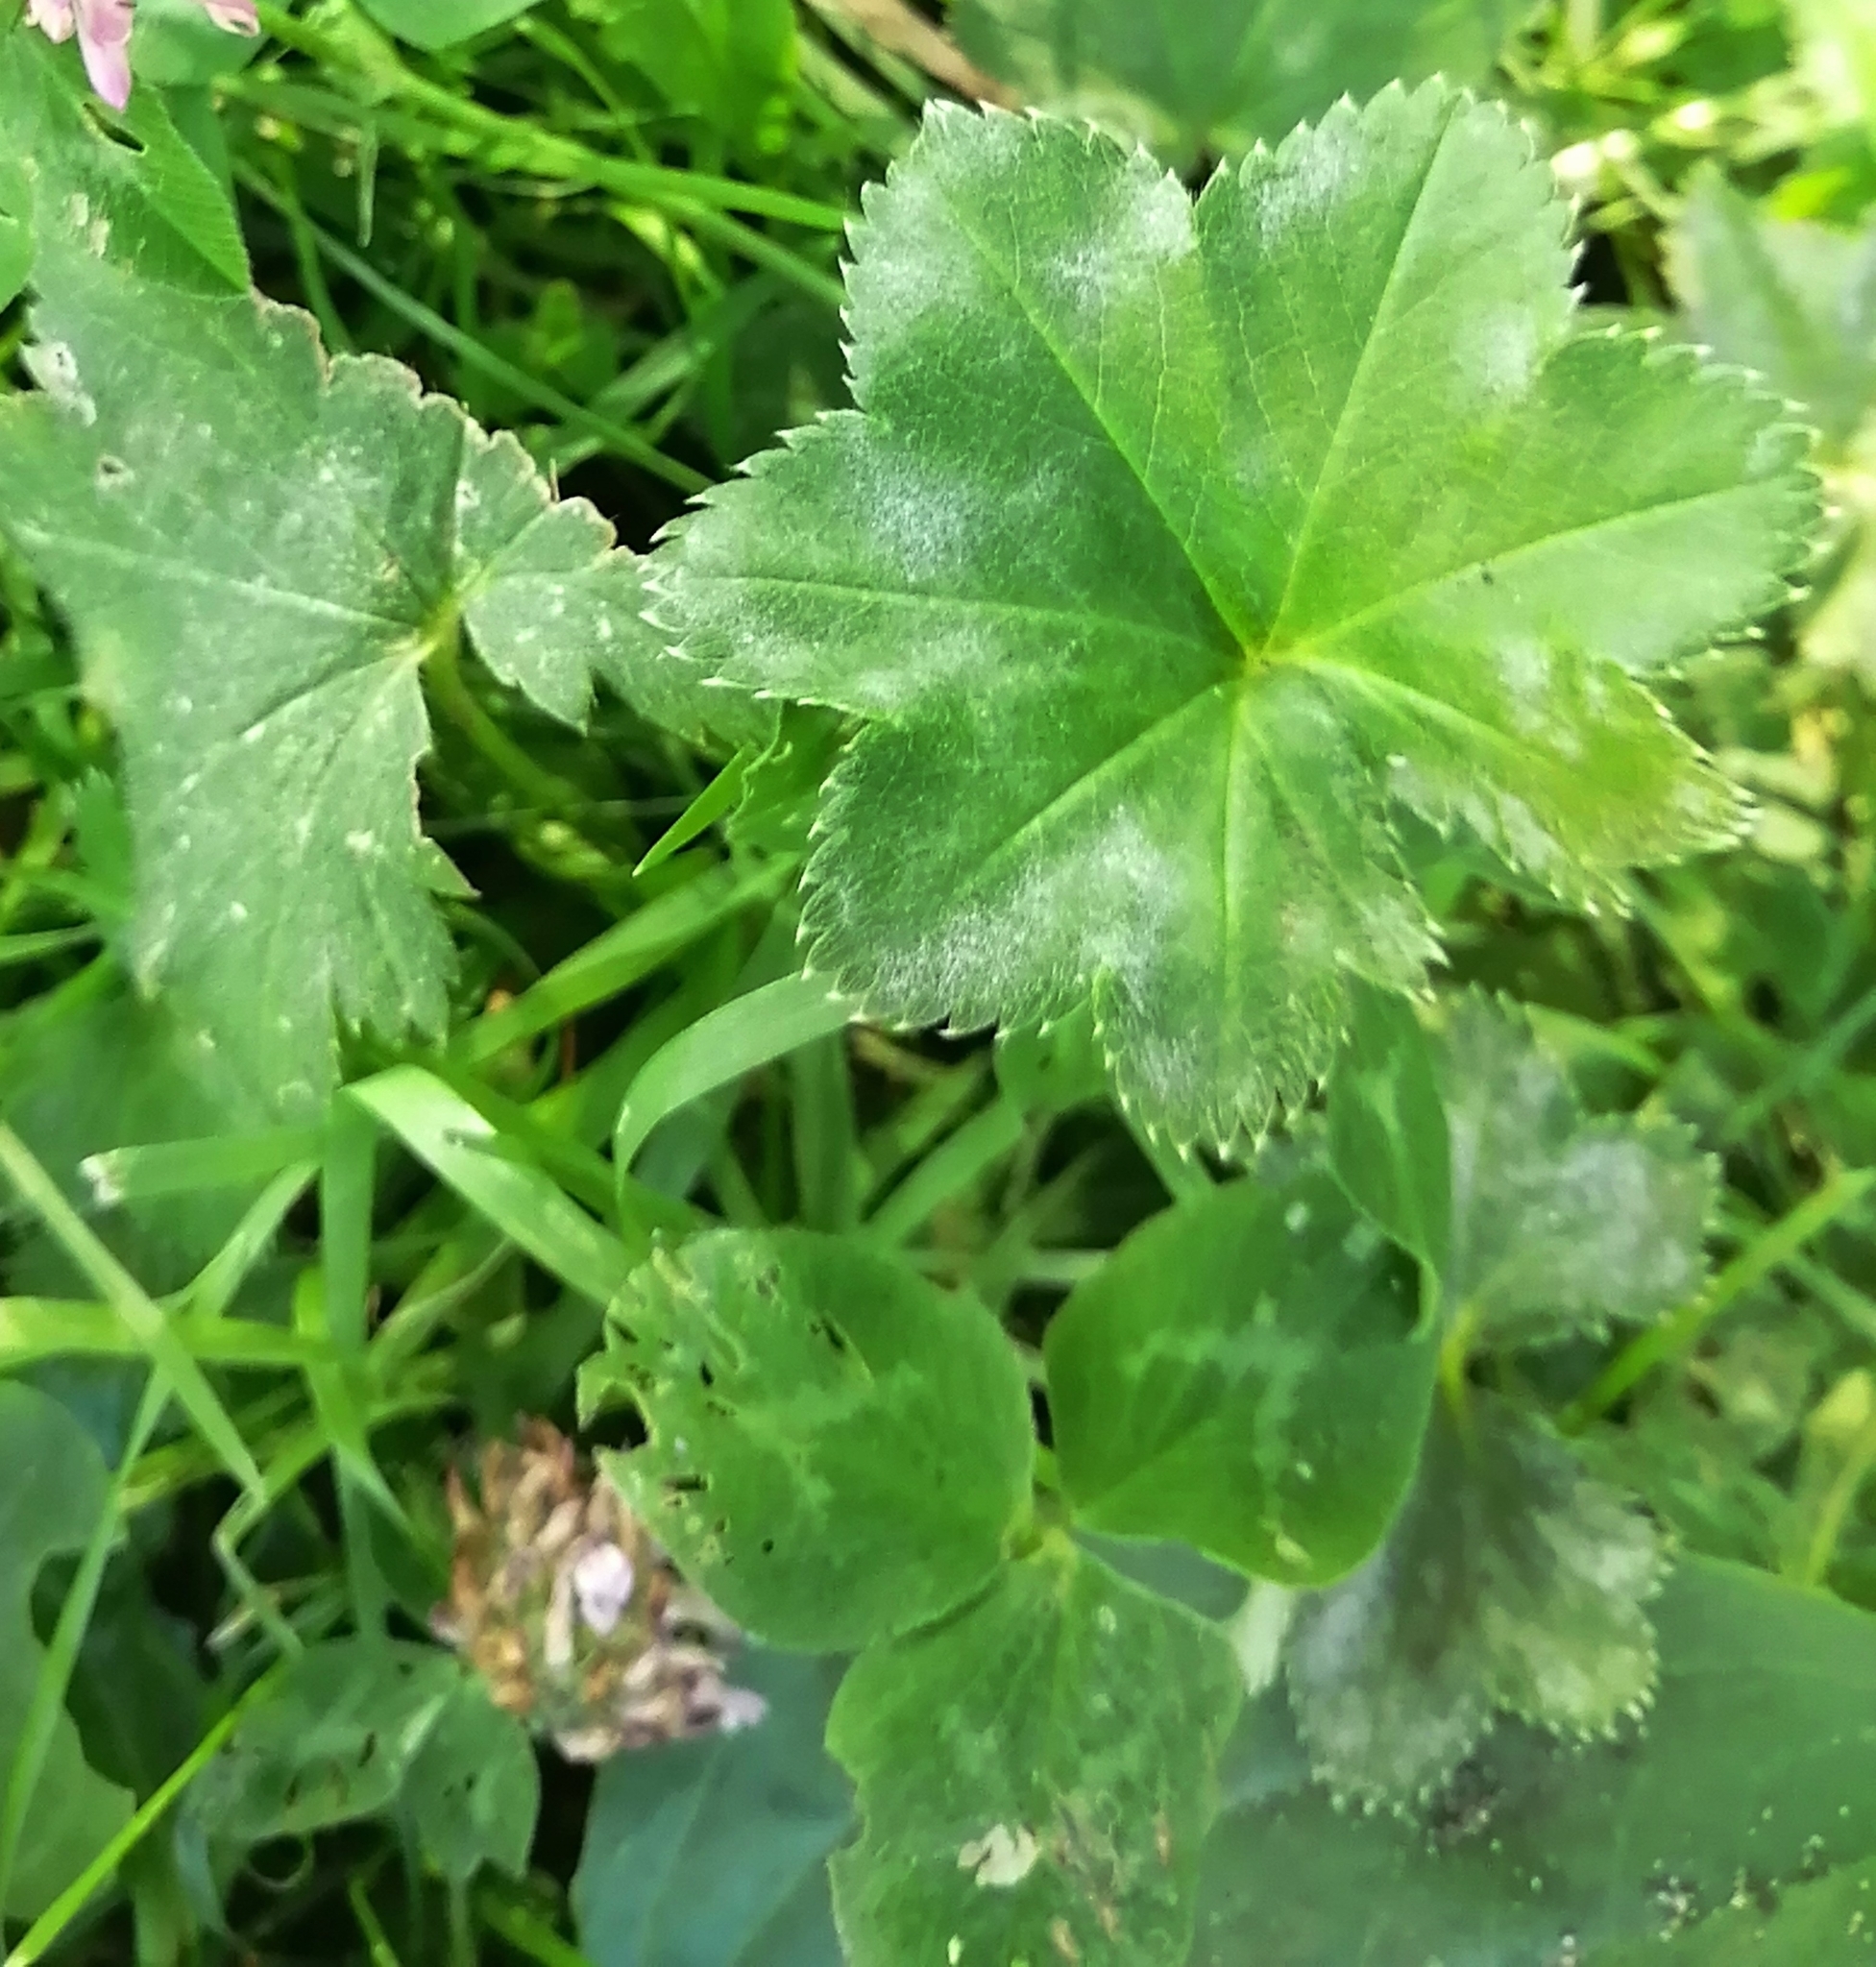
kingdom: Plantae
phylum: Tracheophyta
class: Magnoliopsida
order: Rosales
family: Rosaceae
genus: Alchemilla
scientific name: Alchemilla
